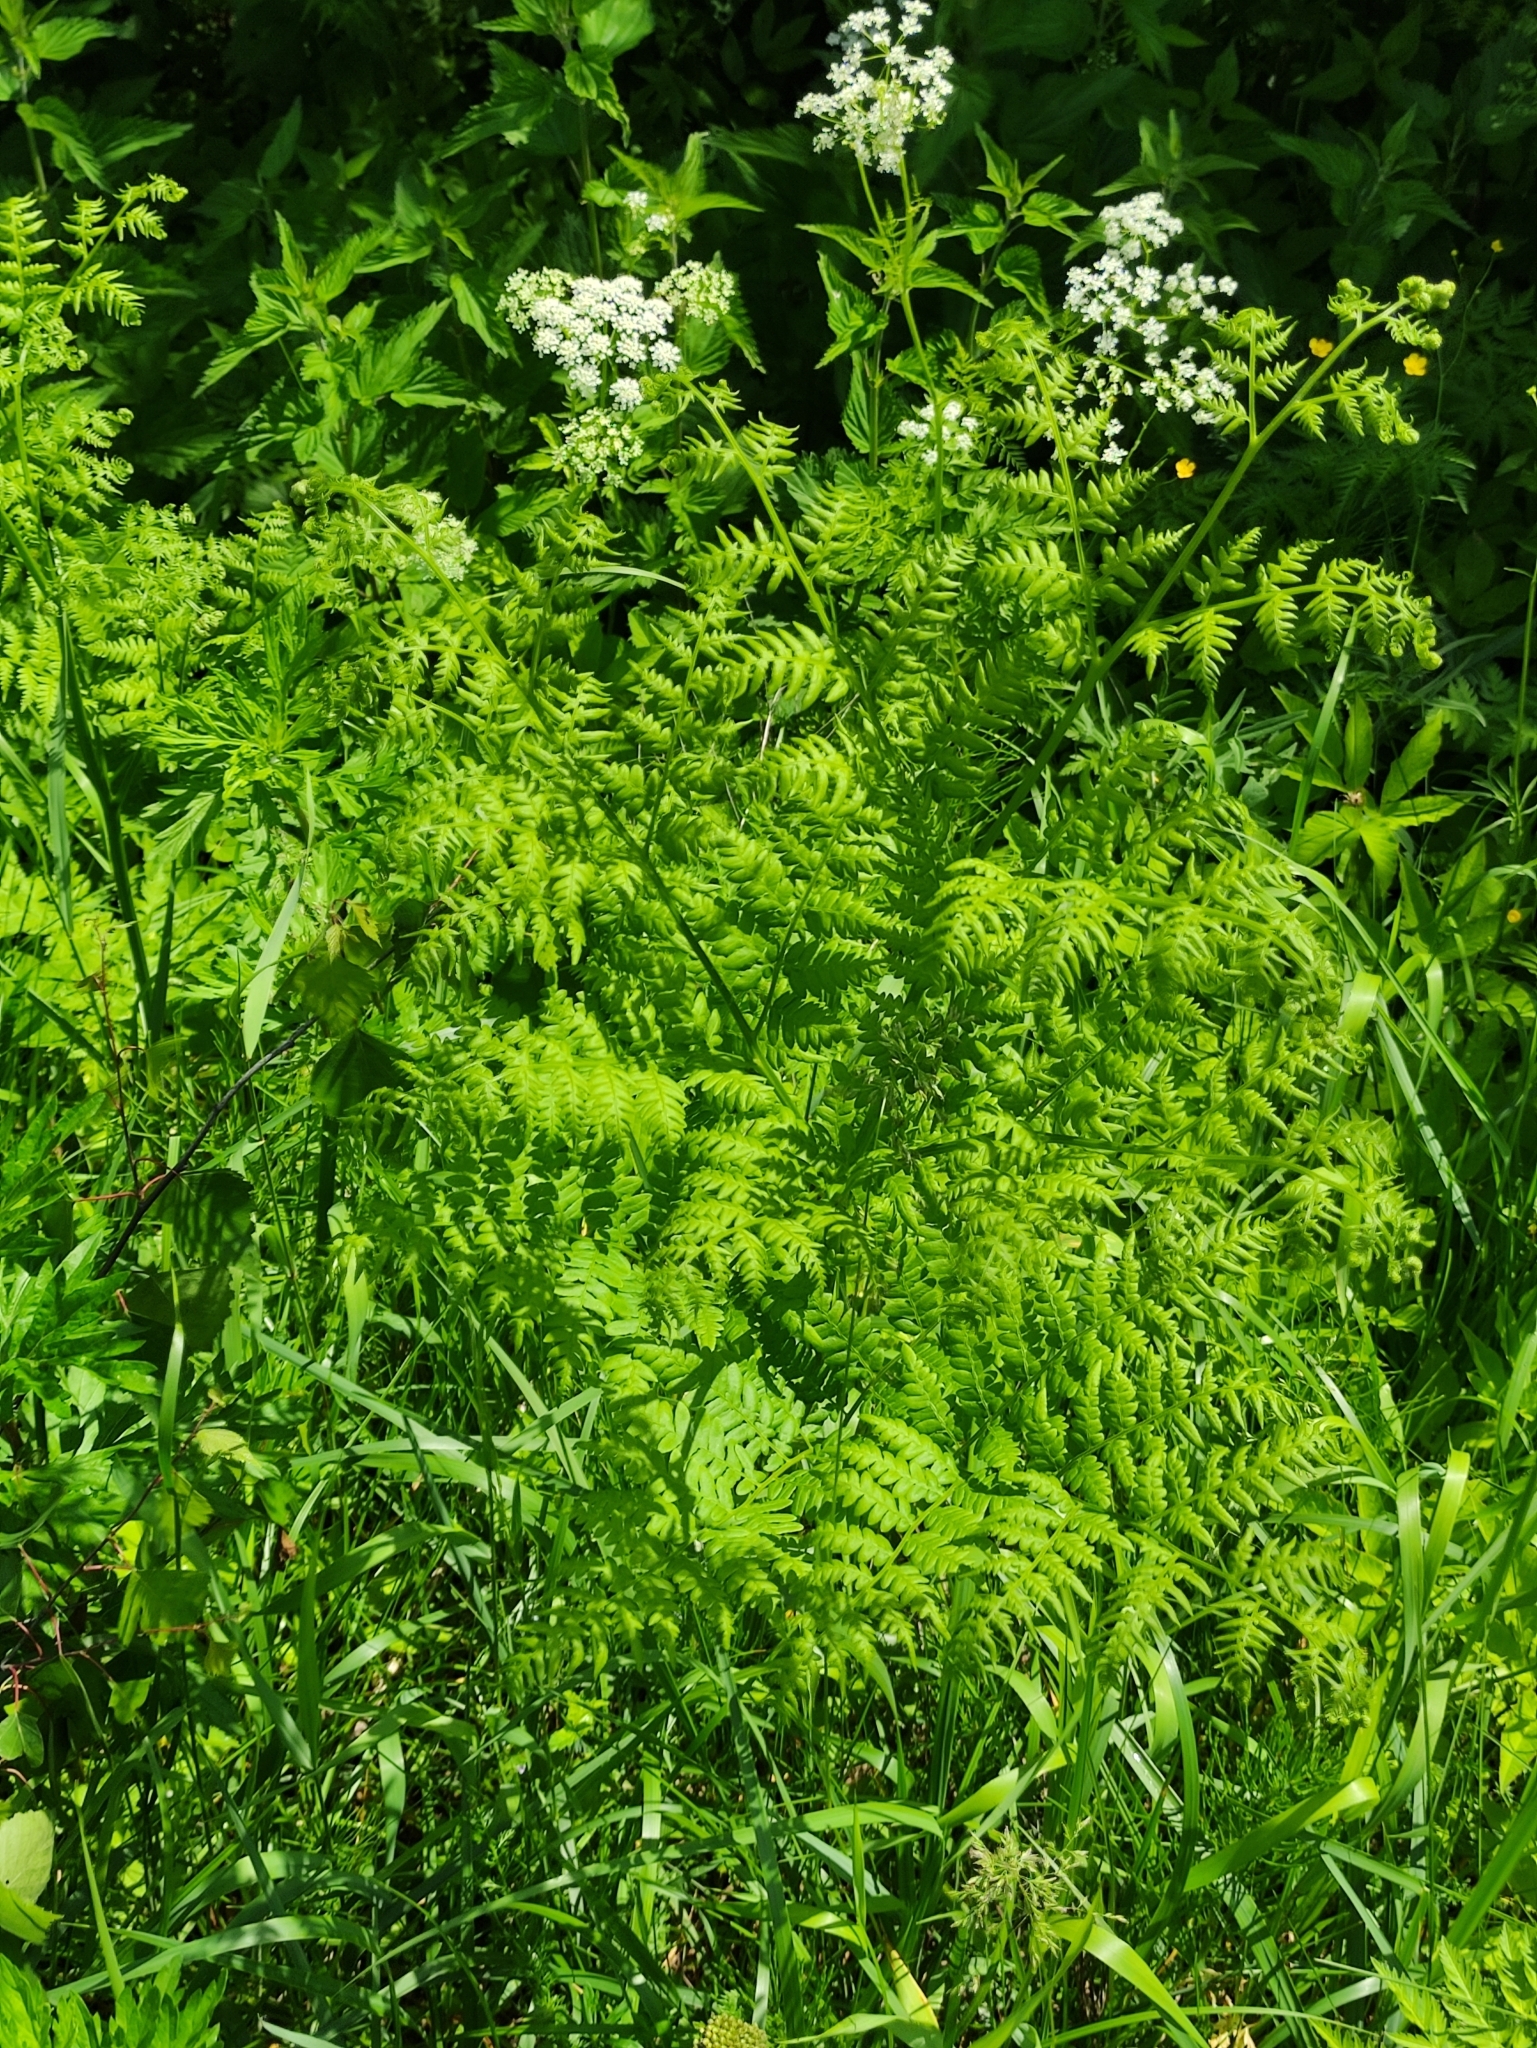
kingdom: Plantae
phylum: Tracheophyta
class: Polypodiopsida
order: Polypodiales
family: Dennstaedtiaceae
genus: Pteridium
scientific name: Pteridium aquilinum
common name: Bracken
